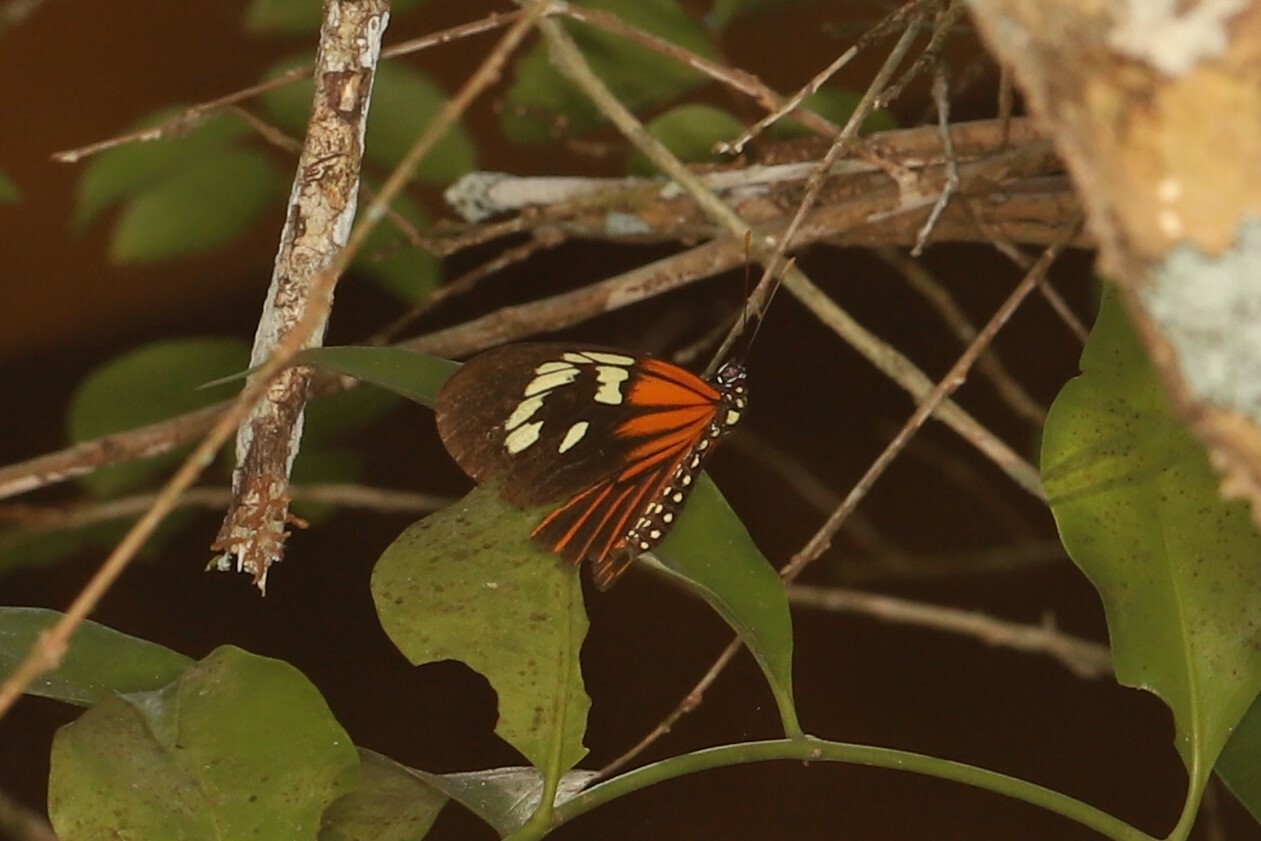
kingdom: Animalia
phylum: Arthropoda
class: Insecta
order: Lepidoptera
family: Nymphalidae
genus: Heliconius
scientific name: Heliconius aoede
